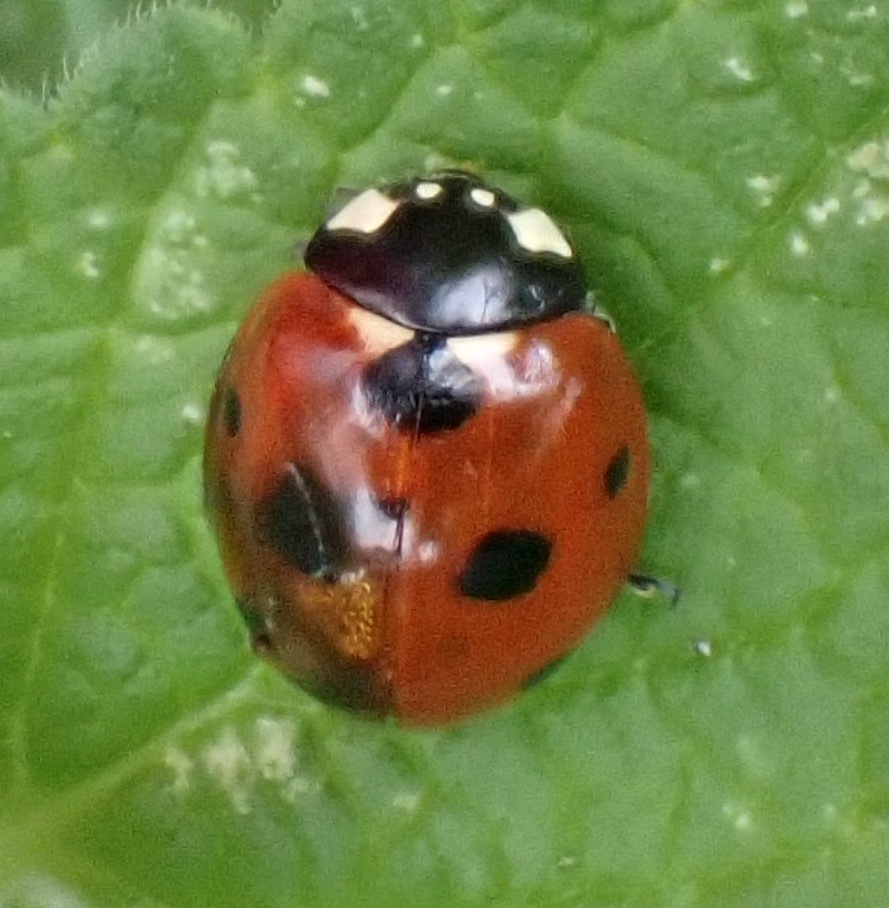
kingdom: Animalia
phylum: Arthropoda
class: Insecta
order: Coleoptera
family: Coccinellidae
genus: Coccinella
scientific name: Coccinella septempunctata
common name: Sevenspotted lady beetle
